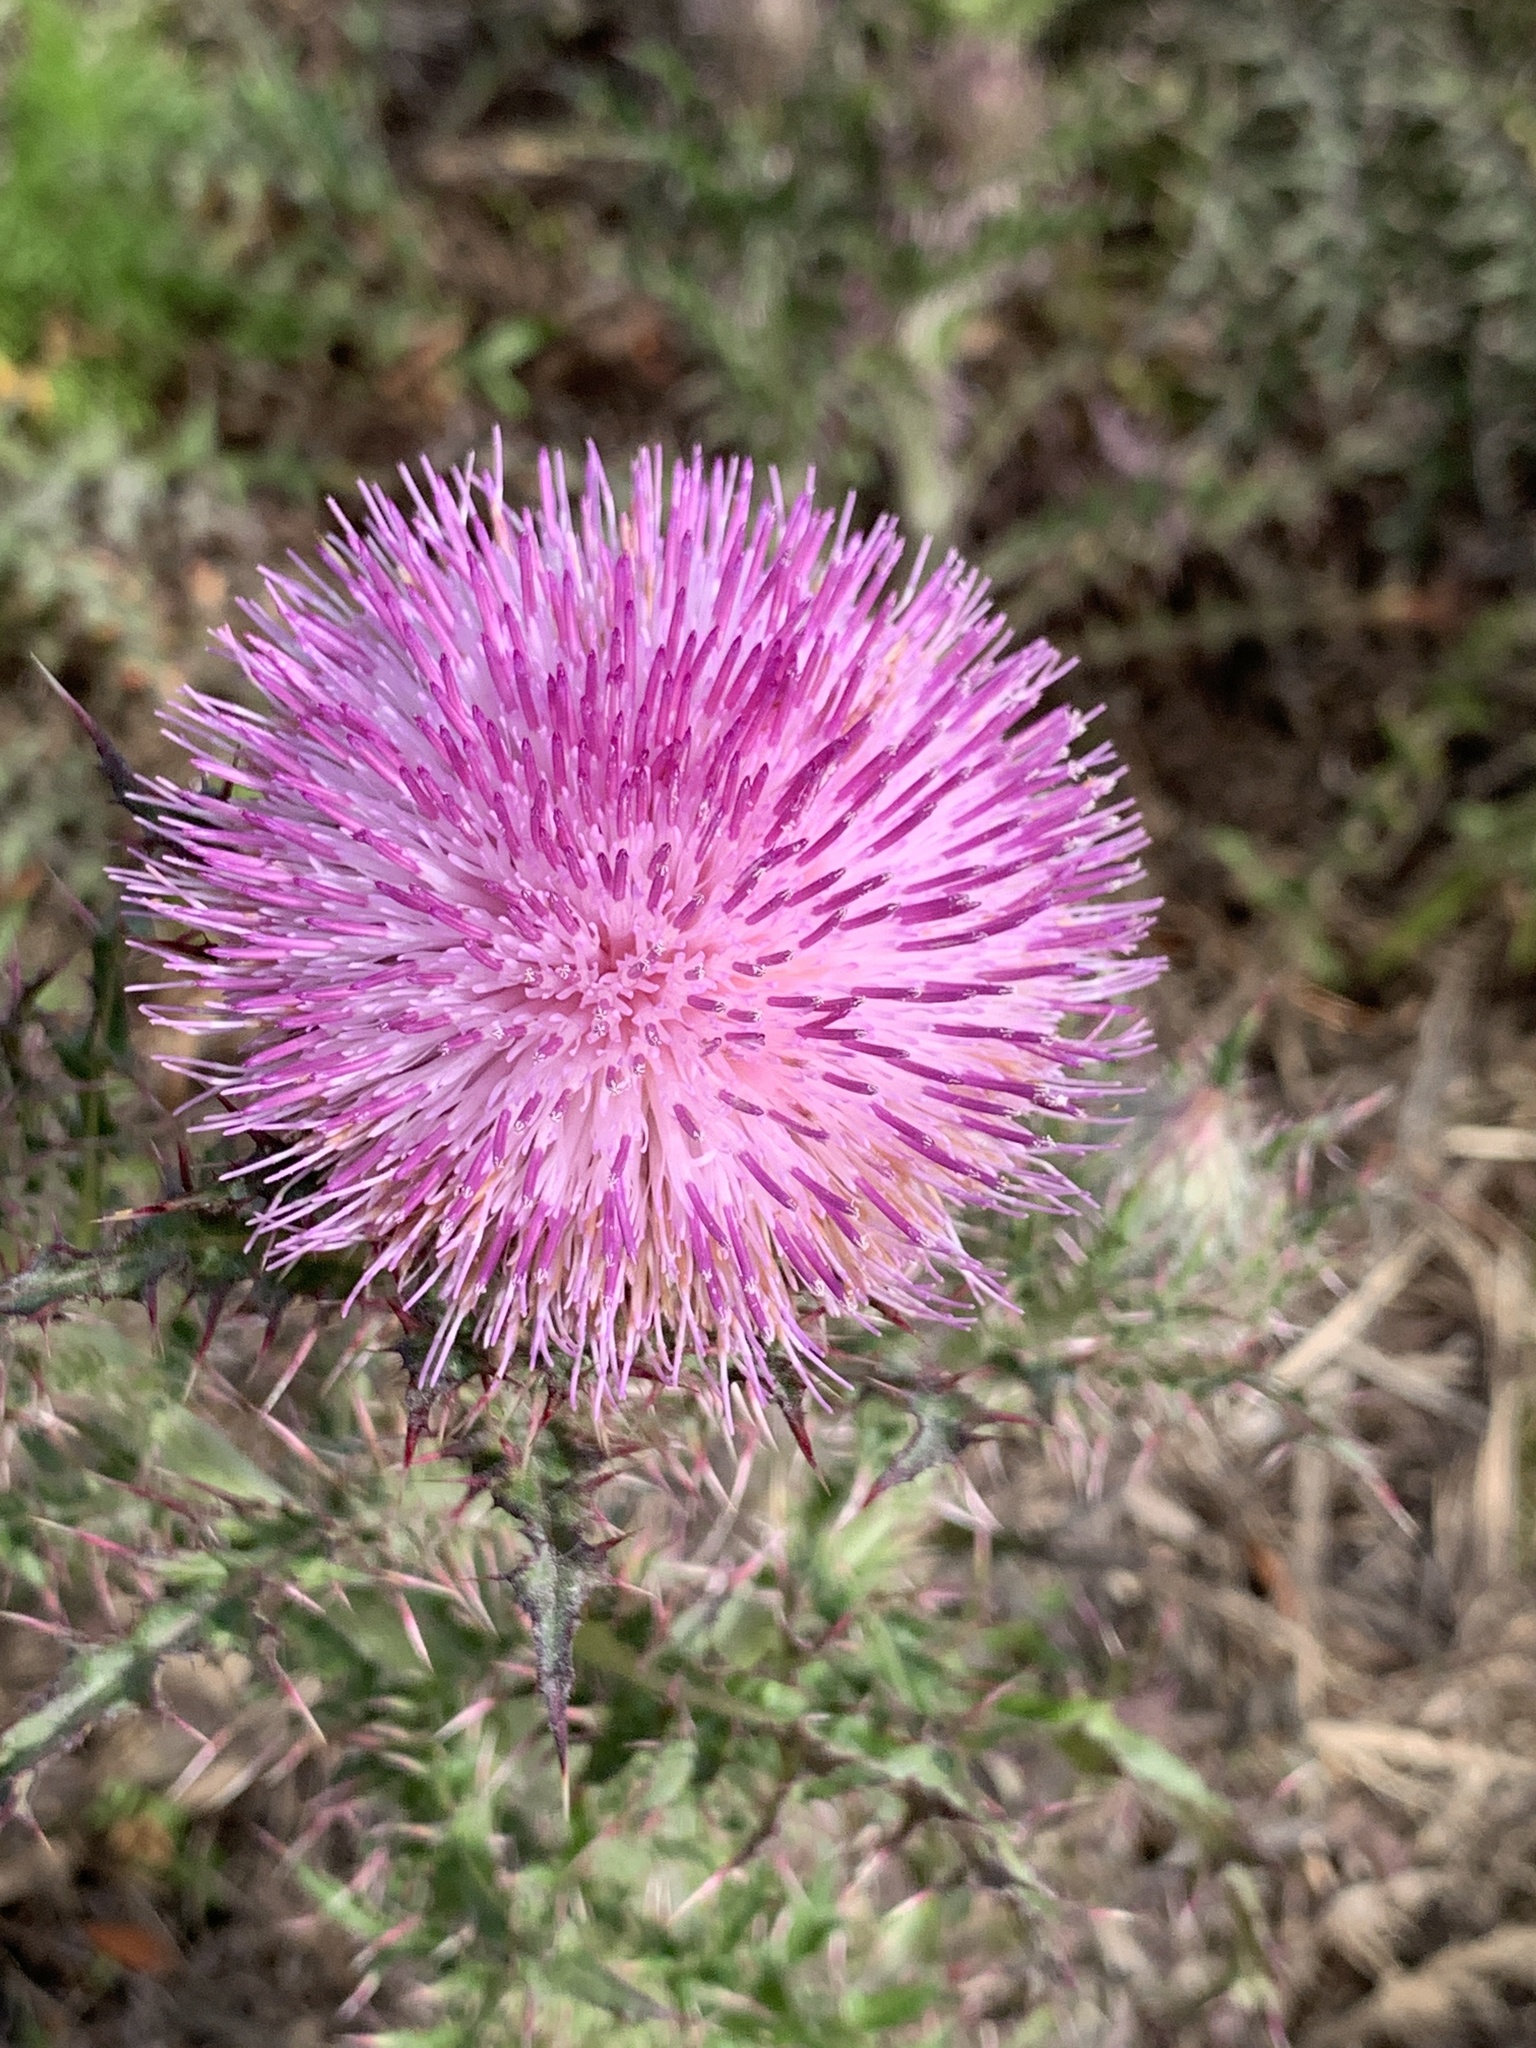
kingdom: Plantae
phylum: Tracheophyta
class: Magnoliopsida
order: Asterales
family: Asteraceae
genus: Cirsium
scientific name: Cirsium nuttalii
